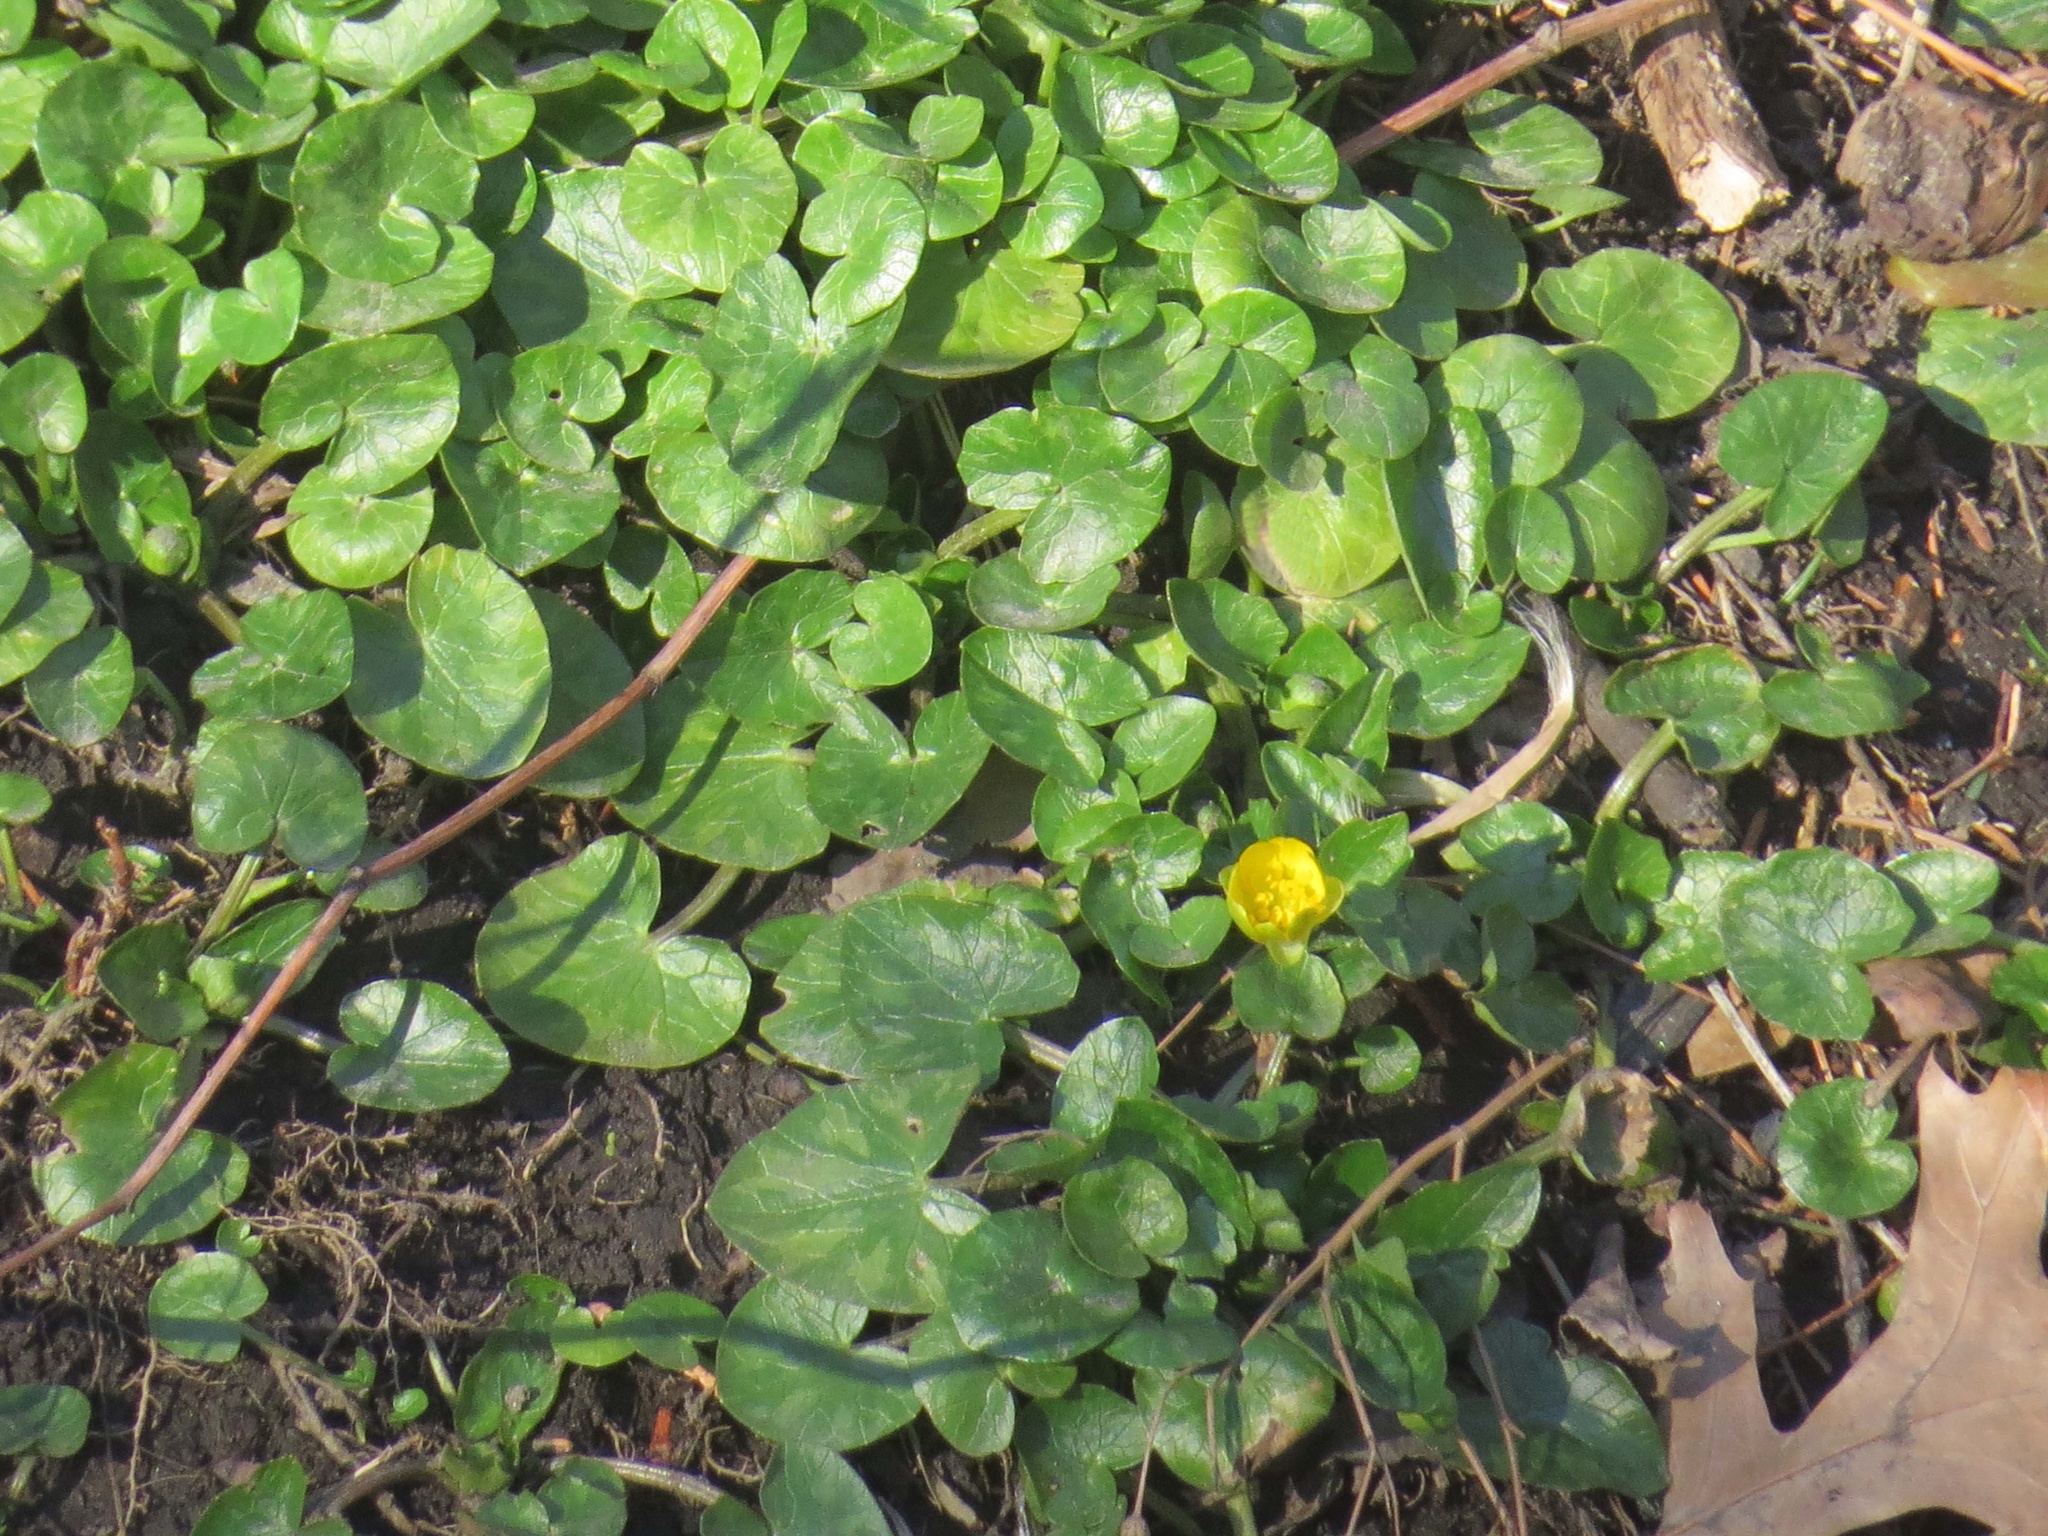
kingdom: Plantae
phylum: Tracheophyta
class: Magnoliopsida
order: Ranunculales
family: Ranunculaceae
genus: Ficaria
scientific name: Ficaria verna
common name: Lesser celandine
